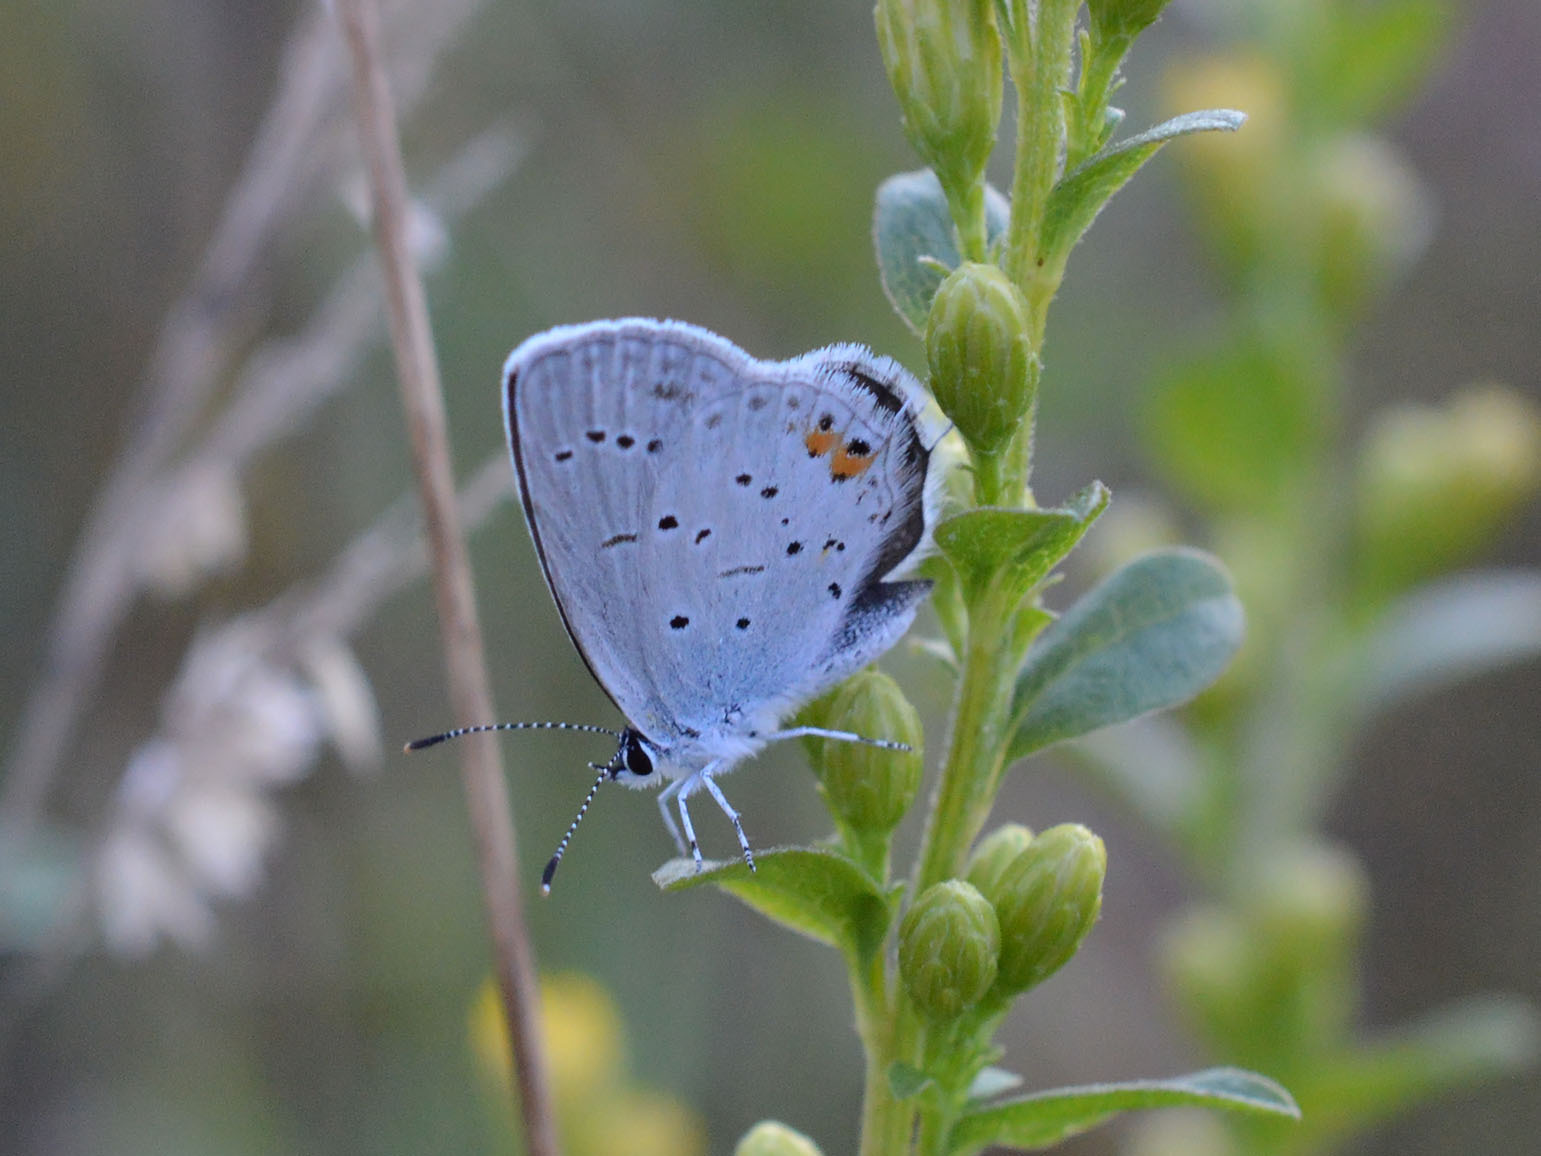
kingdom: Animalia
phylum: Arthropoda
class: Insecta
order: Lepidoptera
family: Lycaenidae
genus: Elkalyce
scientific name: Elkalyce argiades
